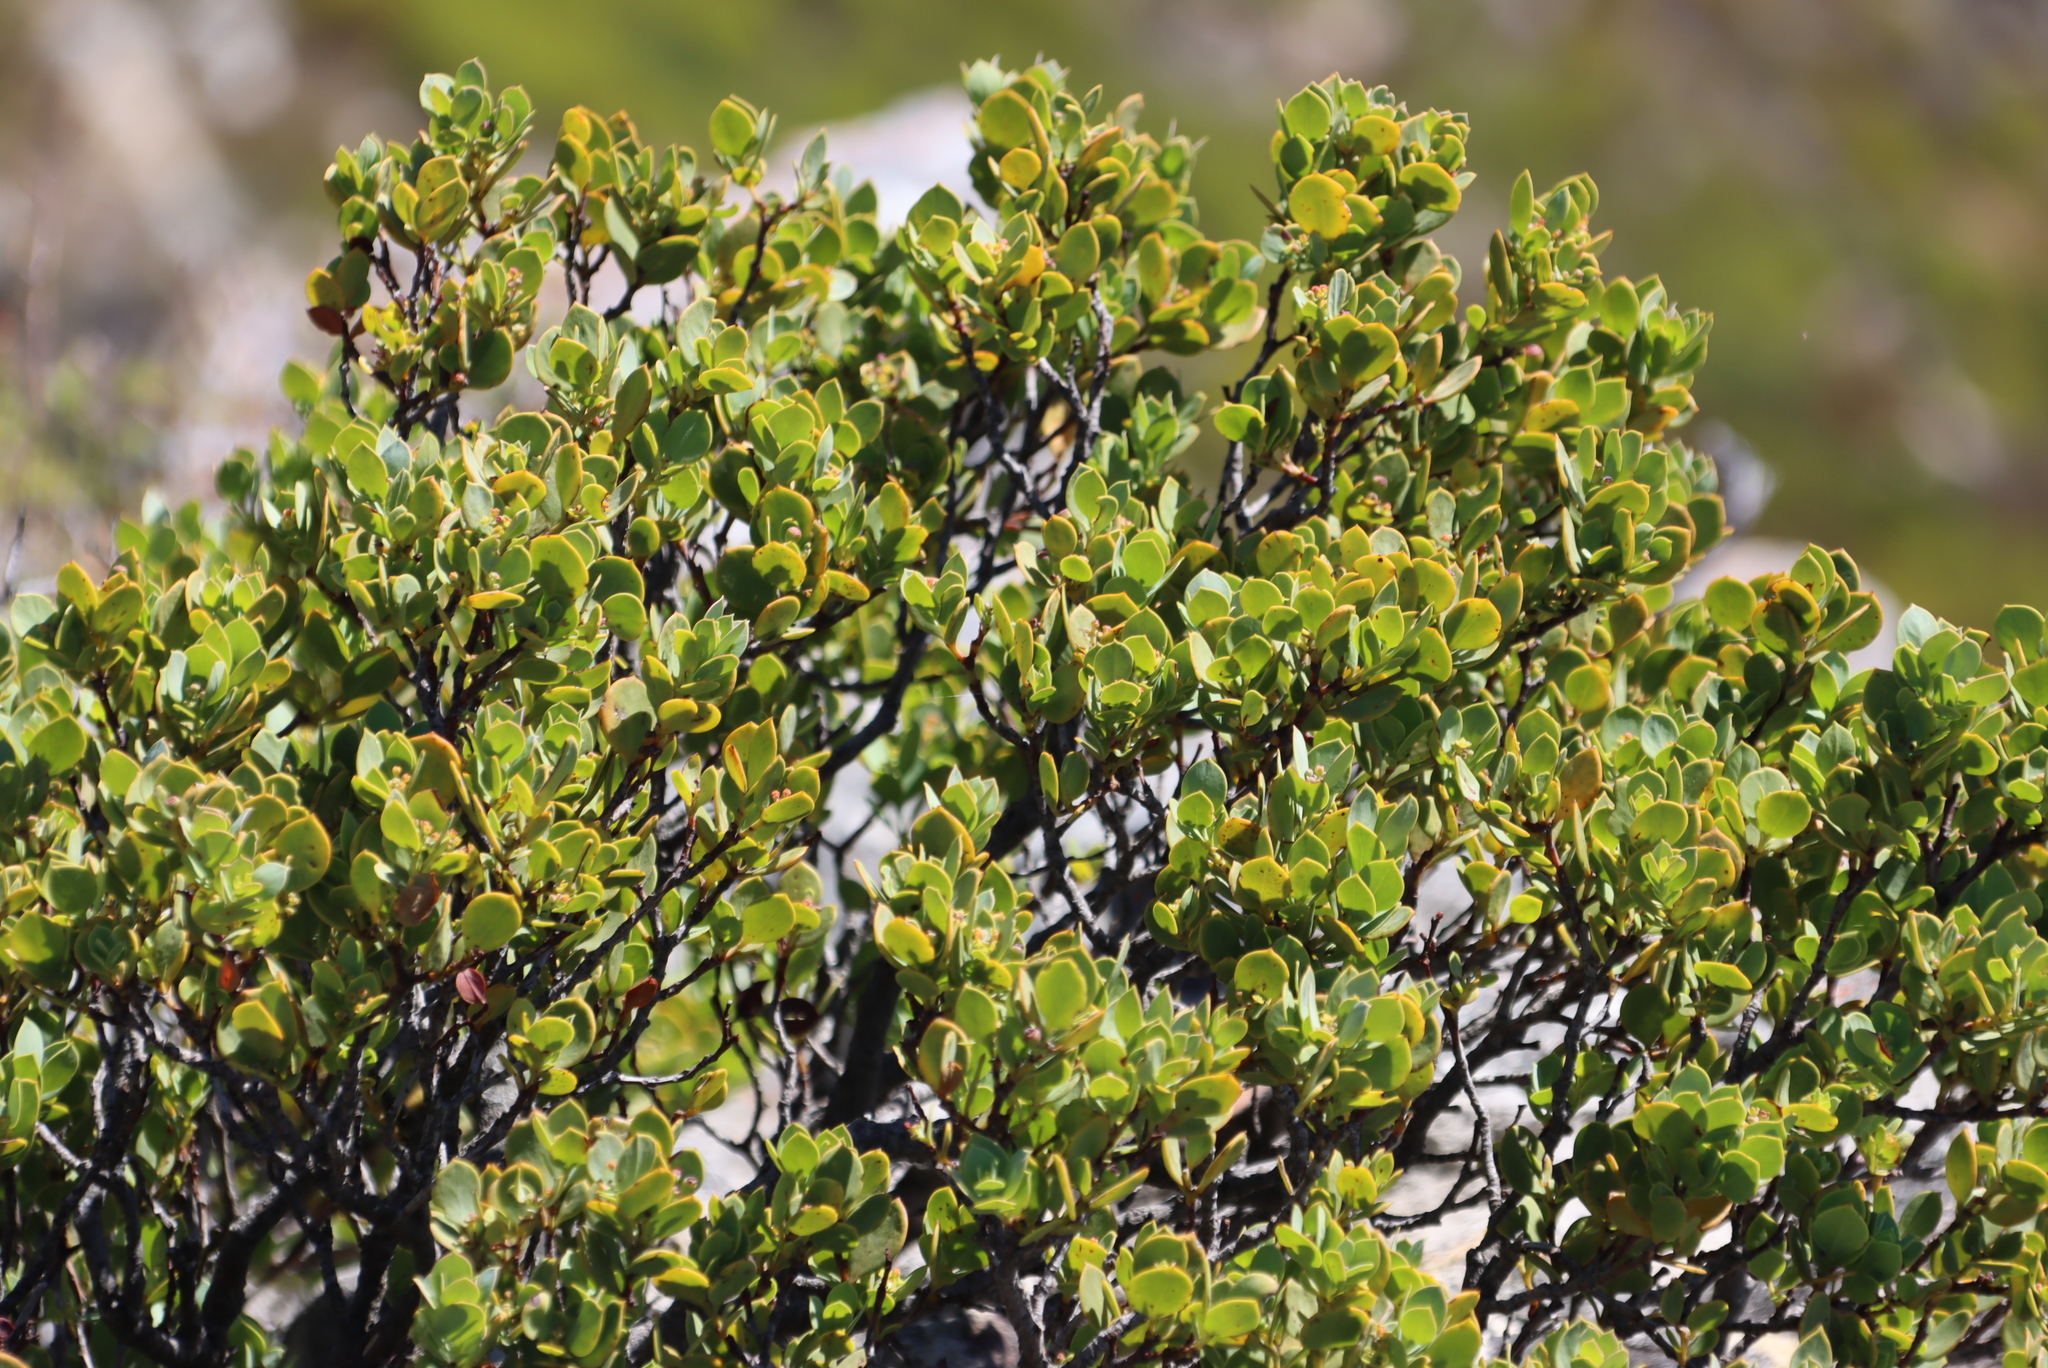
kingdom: Plantae
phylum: Tracheophyta
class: Magnoliopsida
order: Santalales
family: Santalaceae
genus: Osyris
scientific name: Osyris compressa
